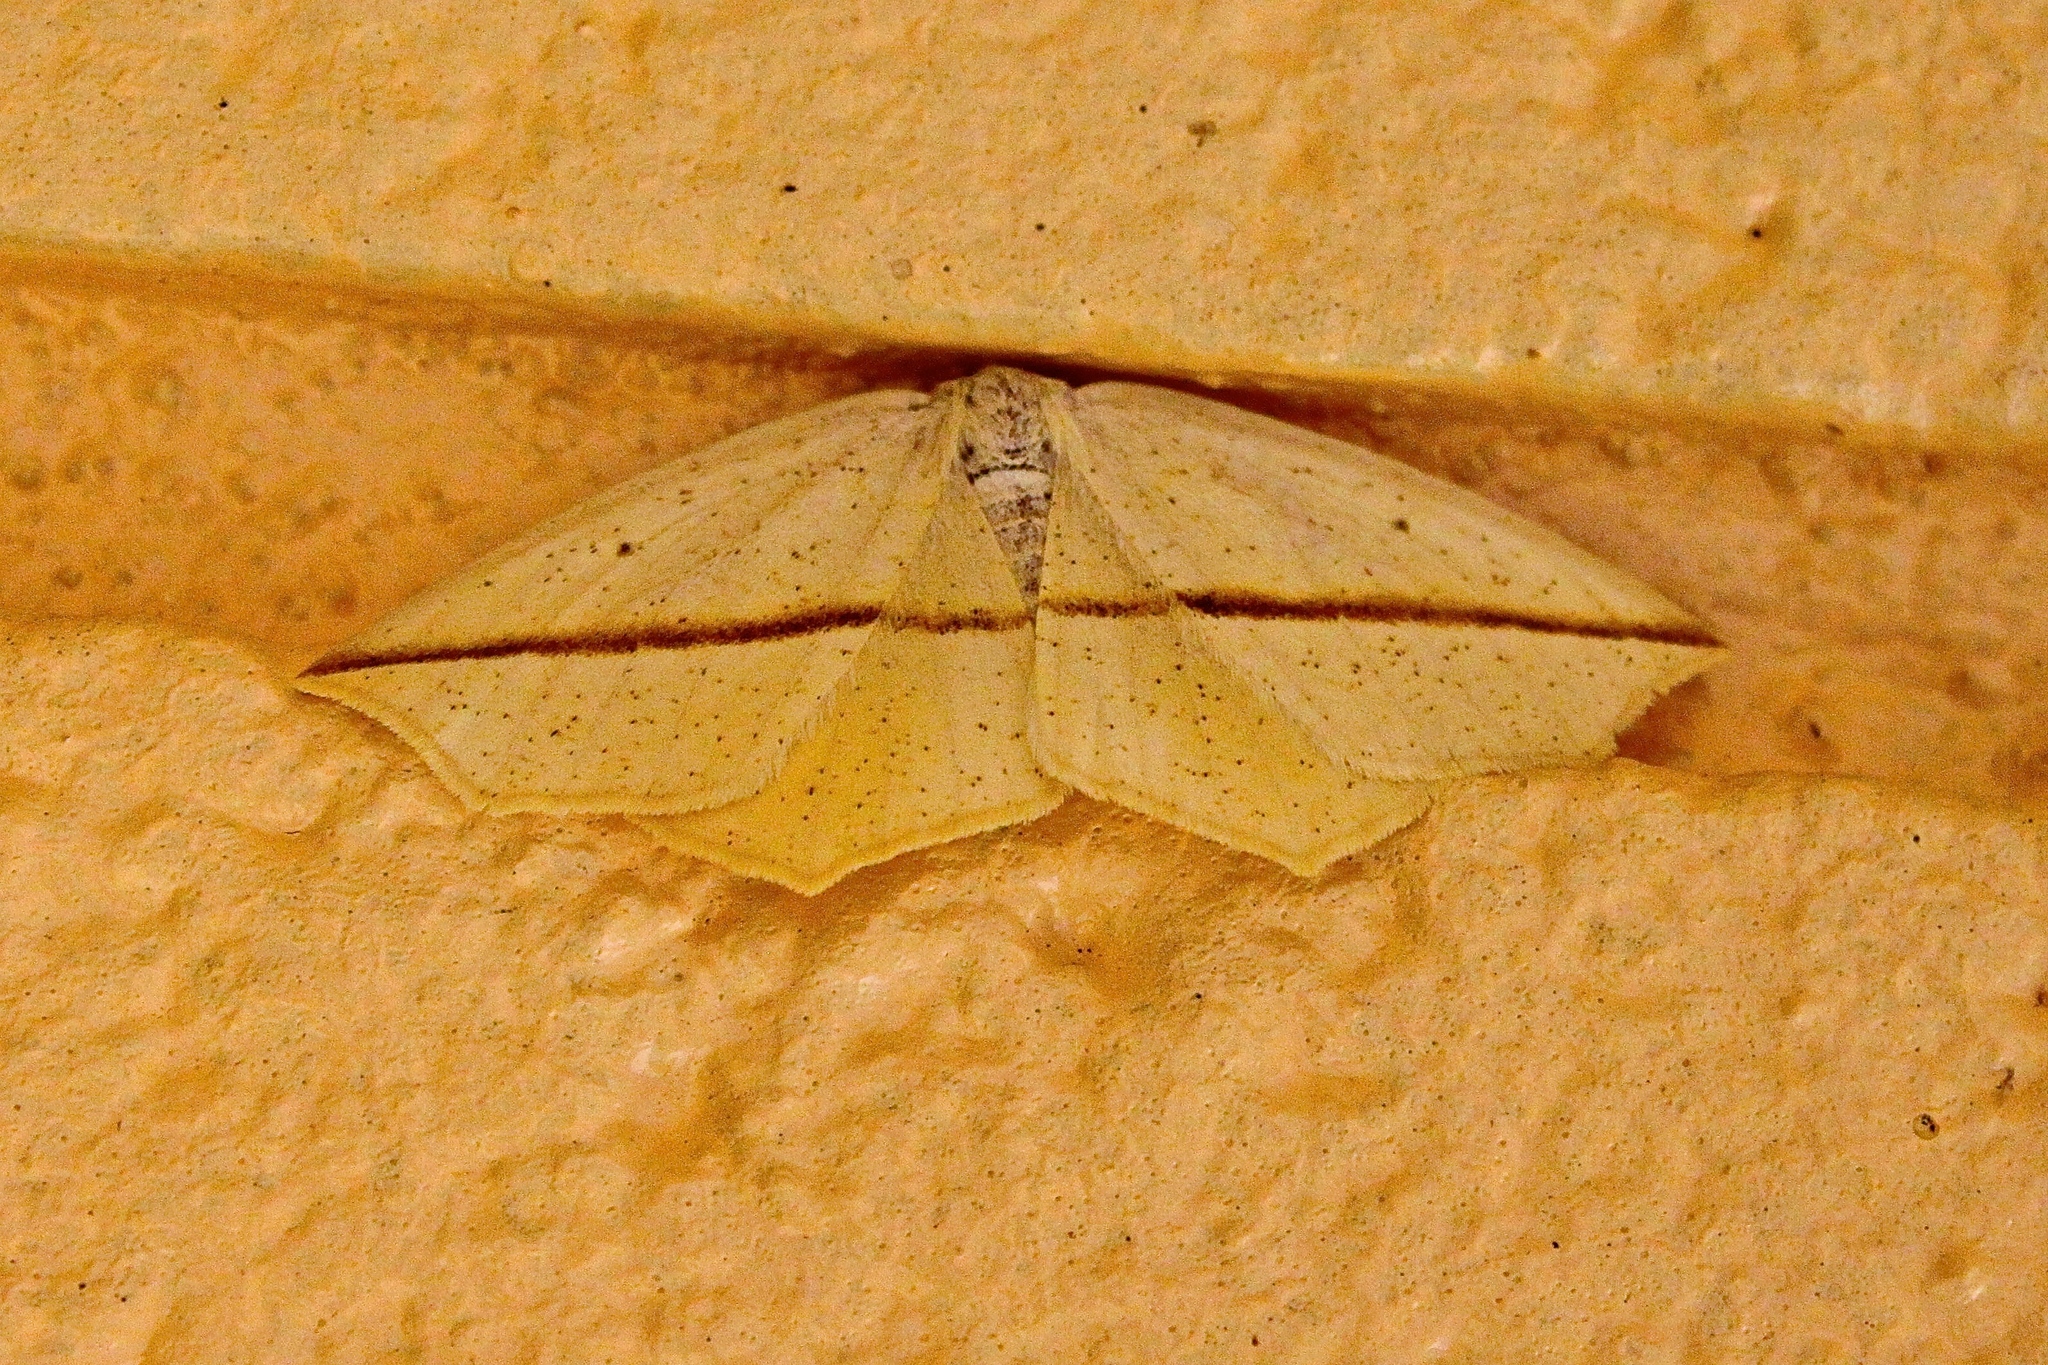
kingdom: Animalia
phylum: Arthropoda
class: Insecta
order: Lepidoptera
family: Geometridae
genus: Tetracis
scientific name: Tetracis crocallata
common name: Yellow slant-line
